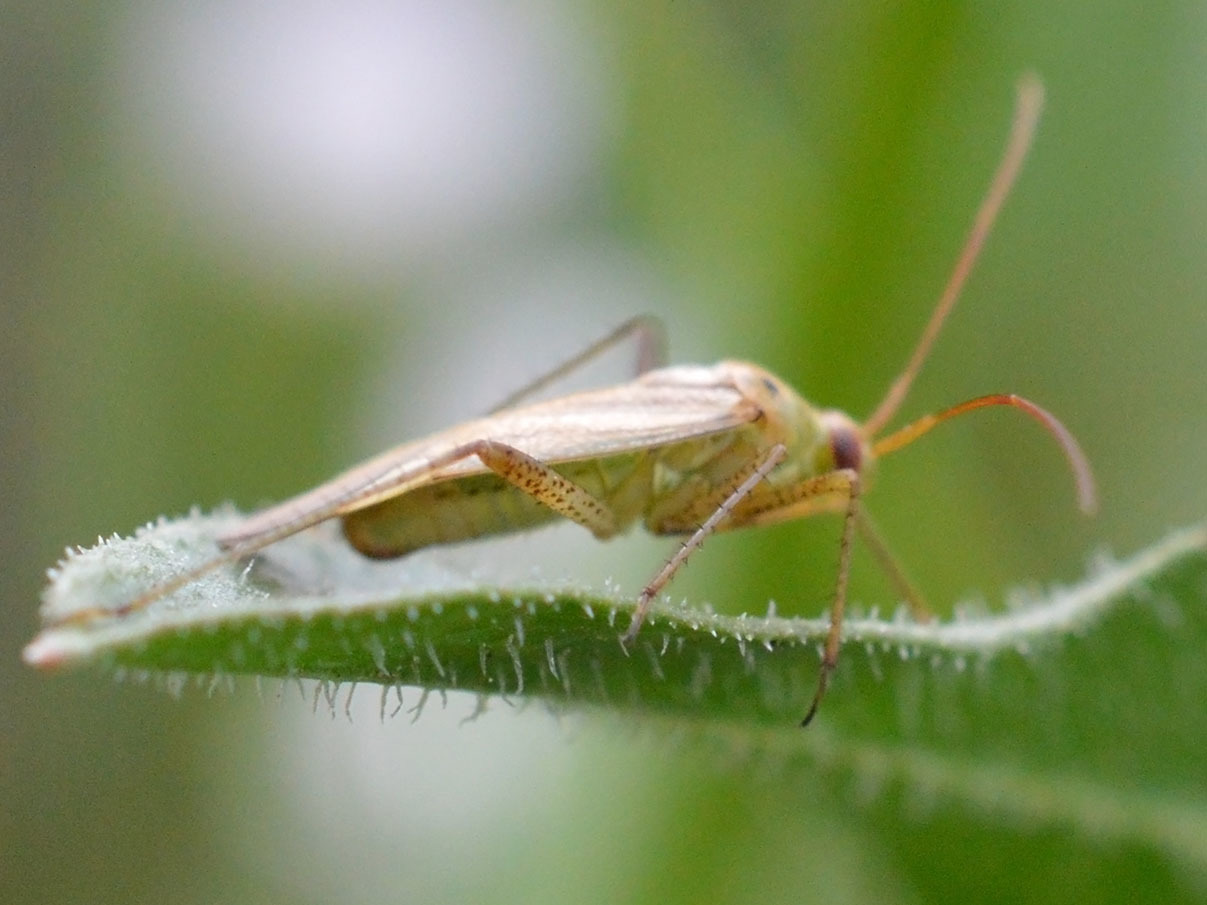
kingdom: Animalia
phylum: Arthropoda
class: Insecta
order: Hemiptera
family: Miridae
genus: Adelphocoris
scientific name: Adelphocoris lineolatus
